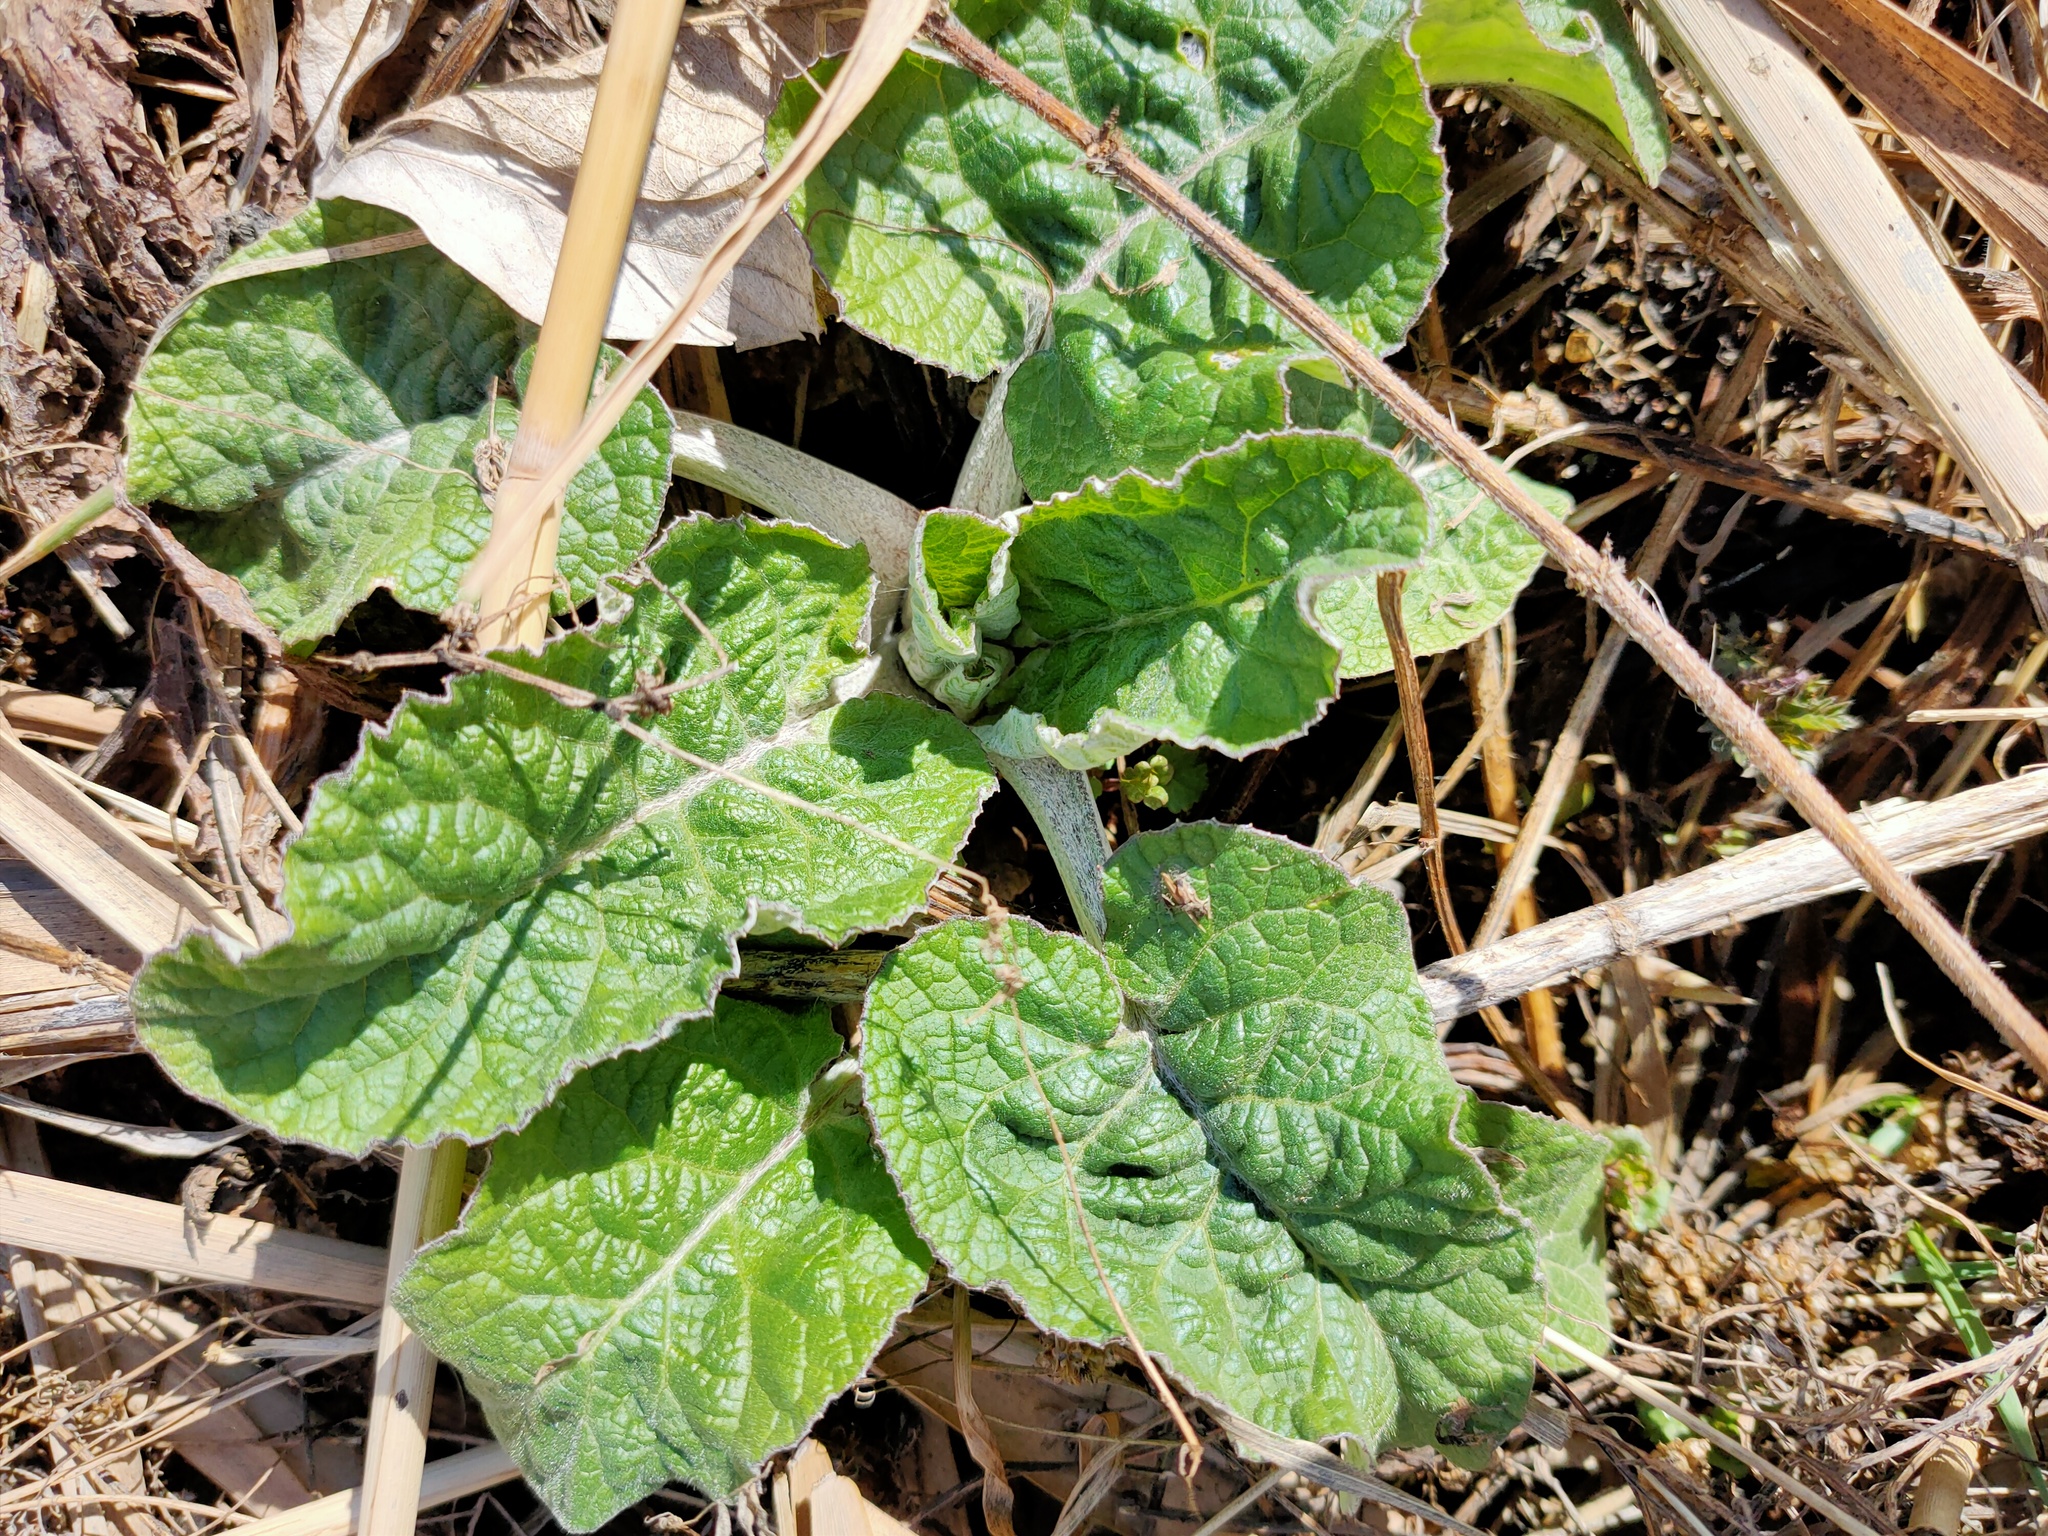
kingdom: Plantae
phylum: Tracheophyta
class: Magnoliopsida
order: Asterales
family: Asteraceae
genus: Arctium
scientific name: Arctium tomentosum
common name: Woolly burdock
